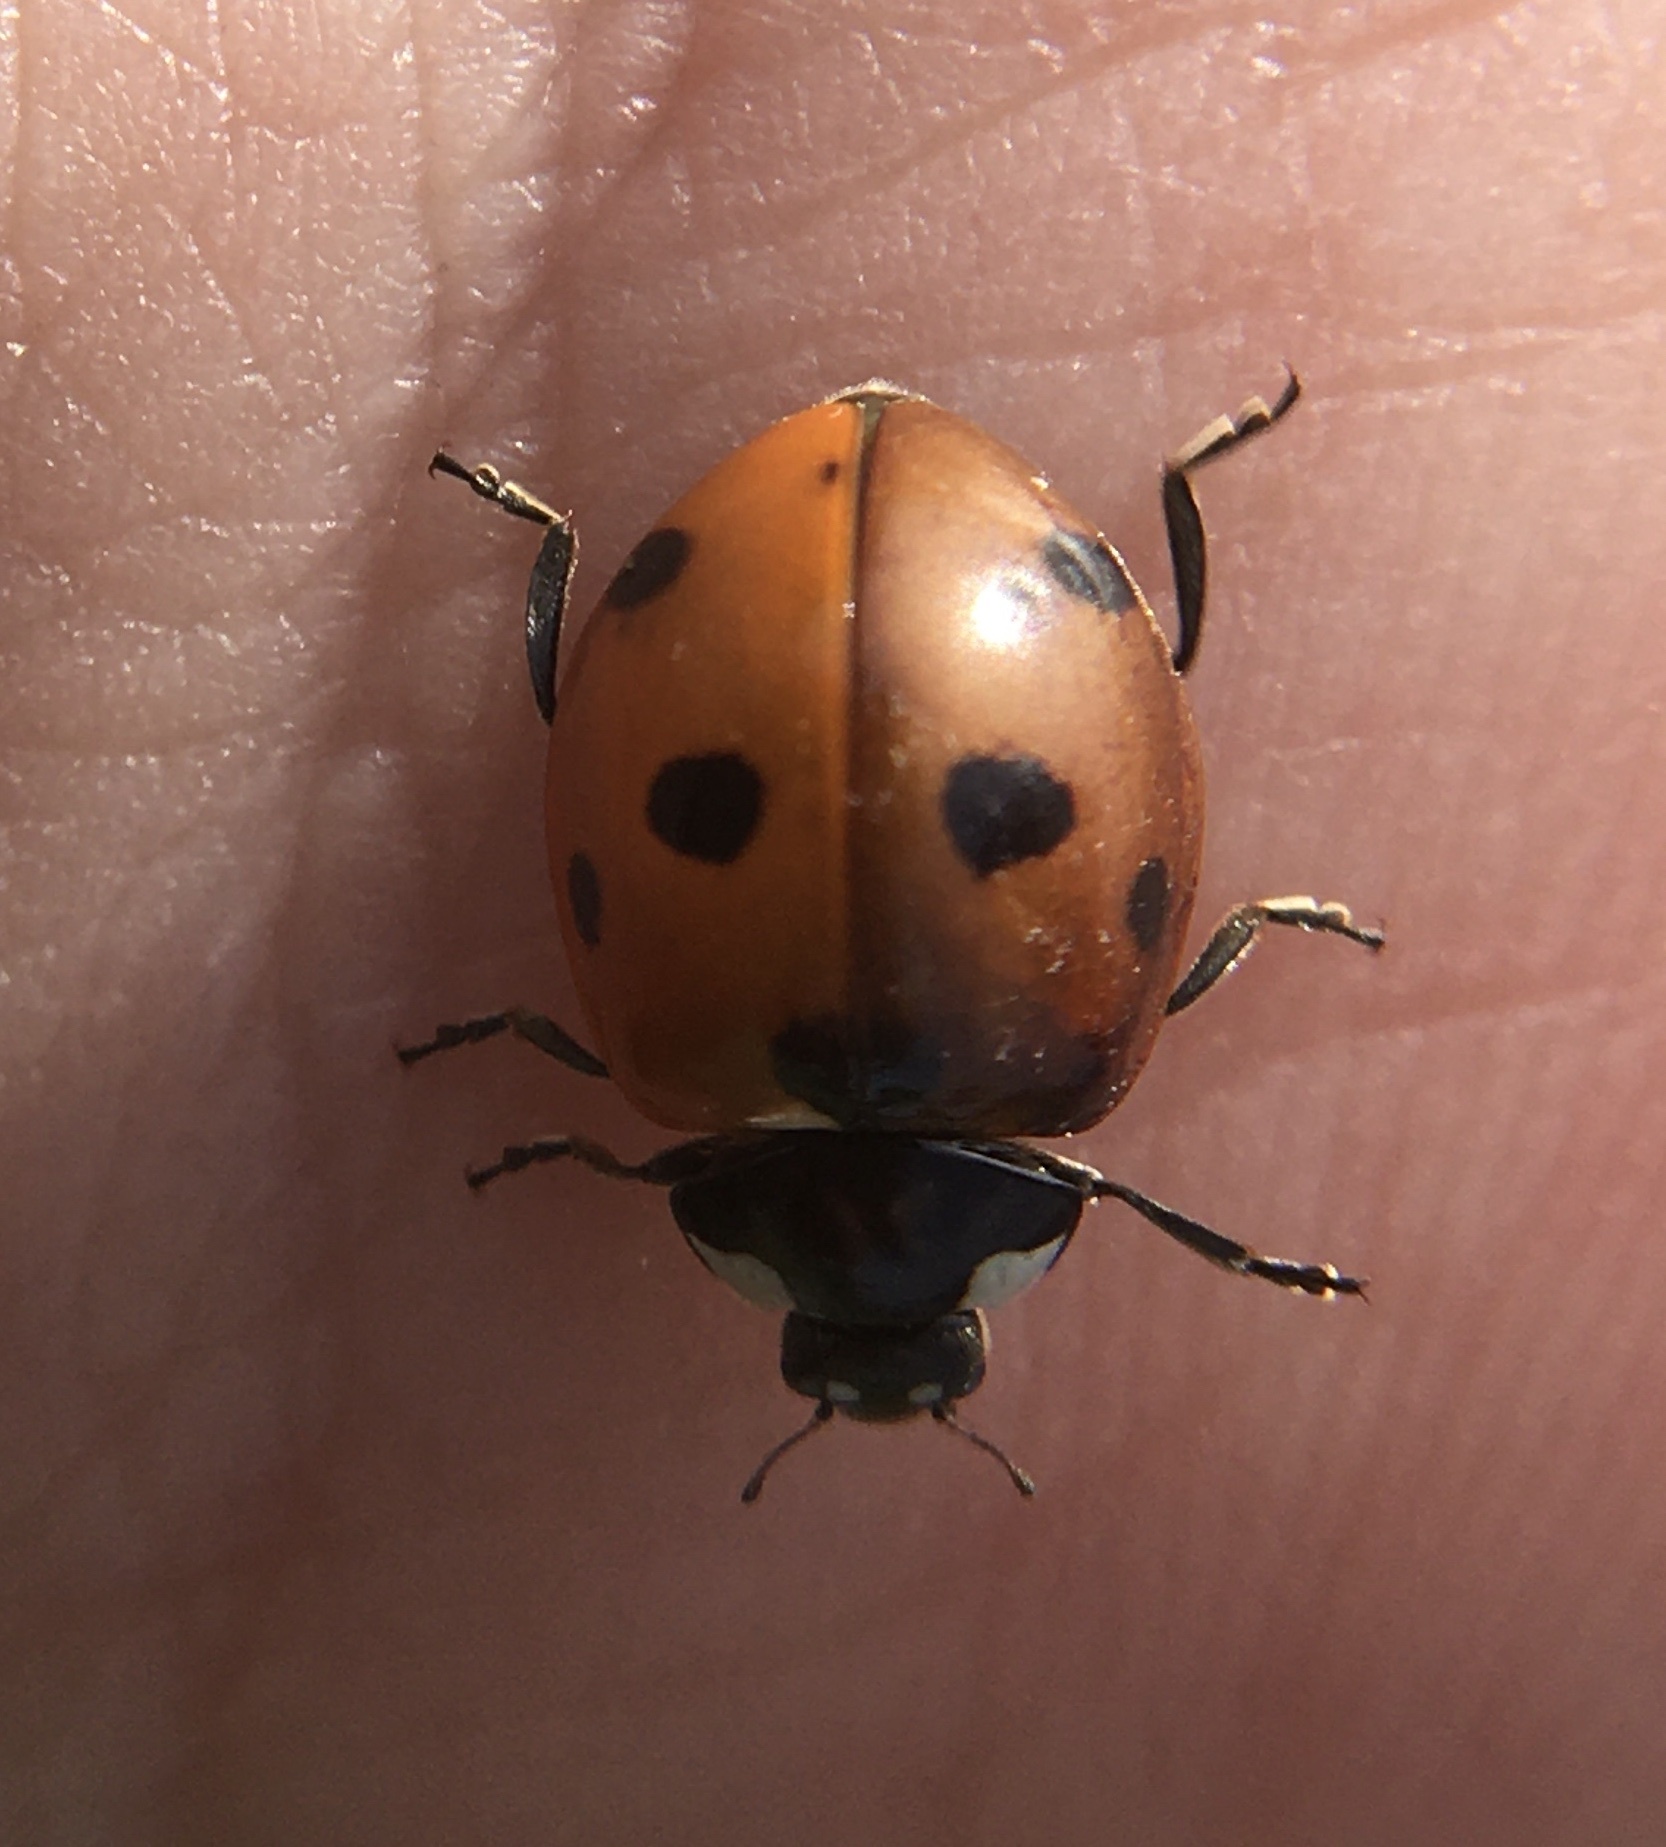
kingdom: Animalia
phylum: Arthropoda
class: Insecta
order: Coleoptera
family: Coccinellidae
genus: Coccinella
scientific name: Coccinella septempunctata
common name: Sevenspotted lady beetle
